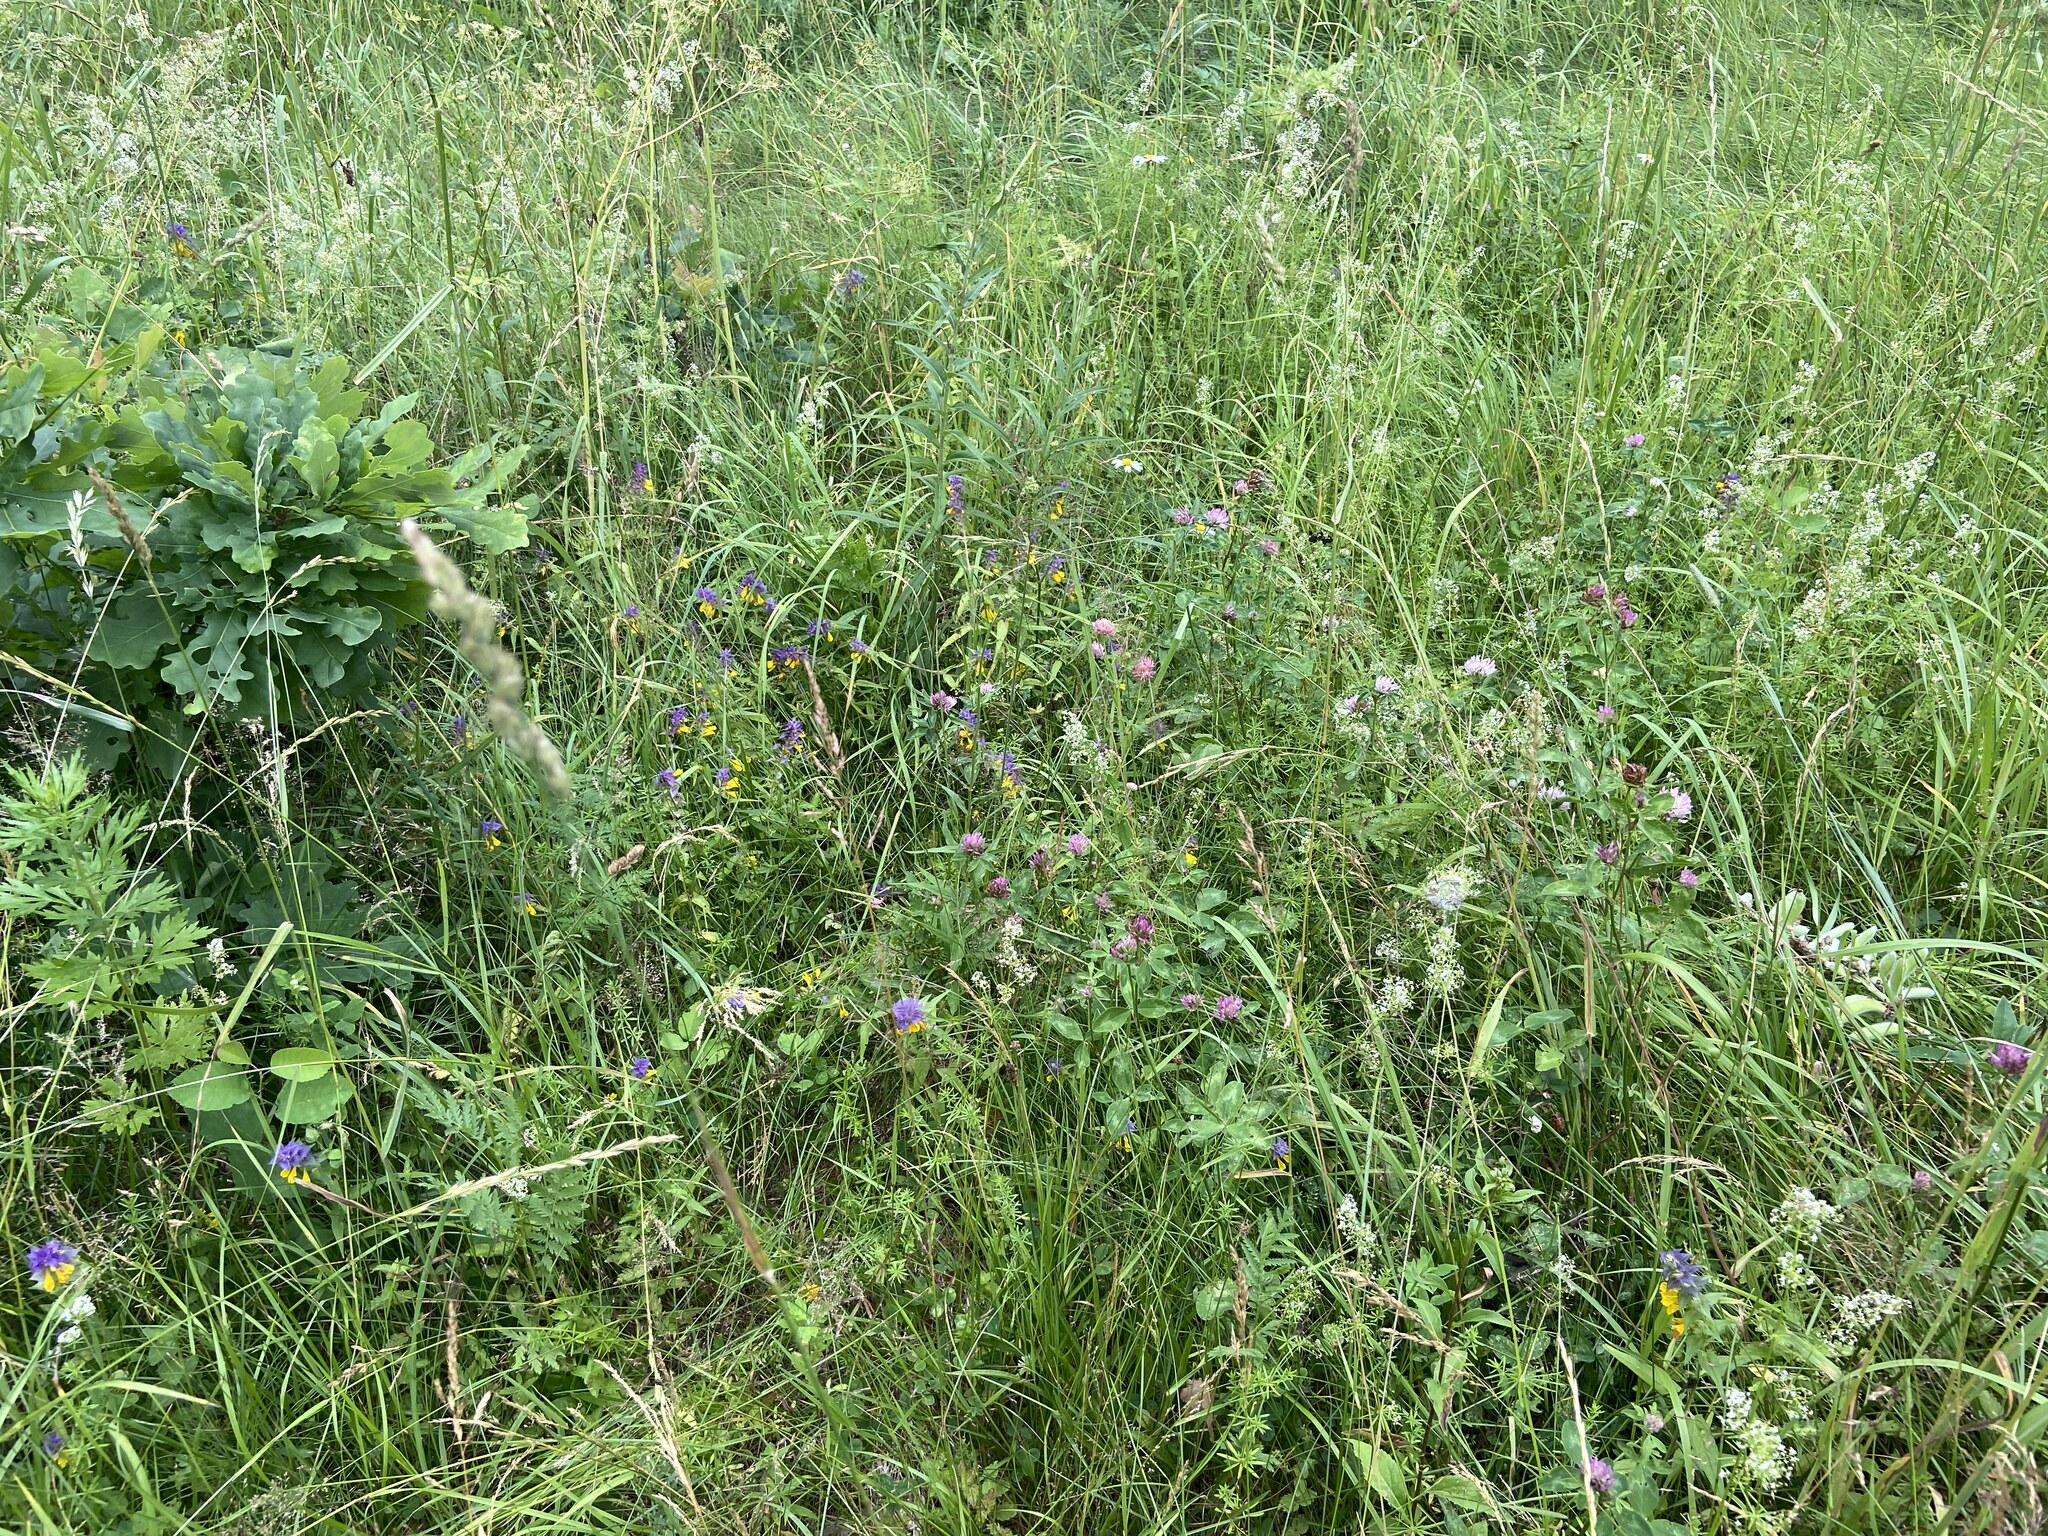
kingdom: Plantae
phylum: Tracheophyta
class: Magnoliopsida
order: Fabales
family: Fabaceae
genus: Trifolium
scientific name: Trifolium pratense
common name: Red clover
